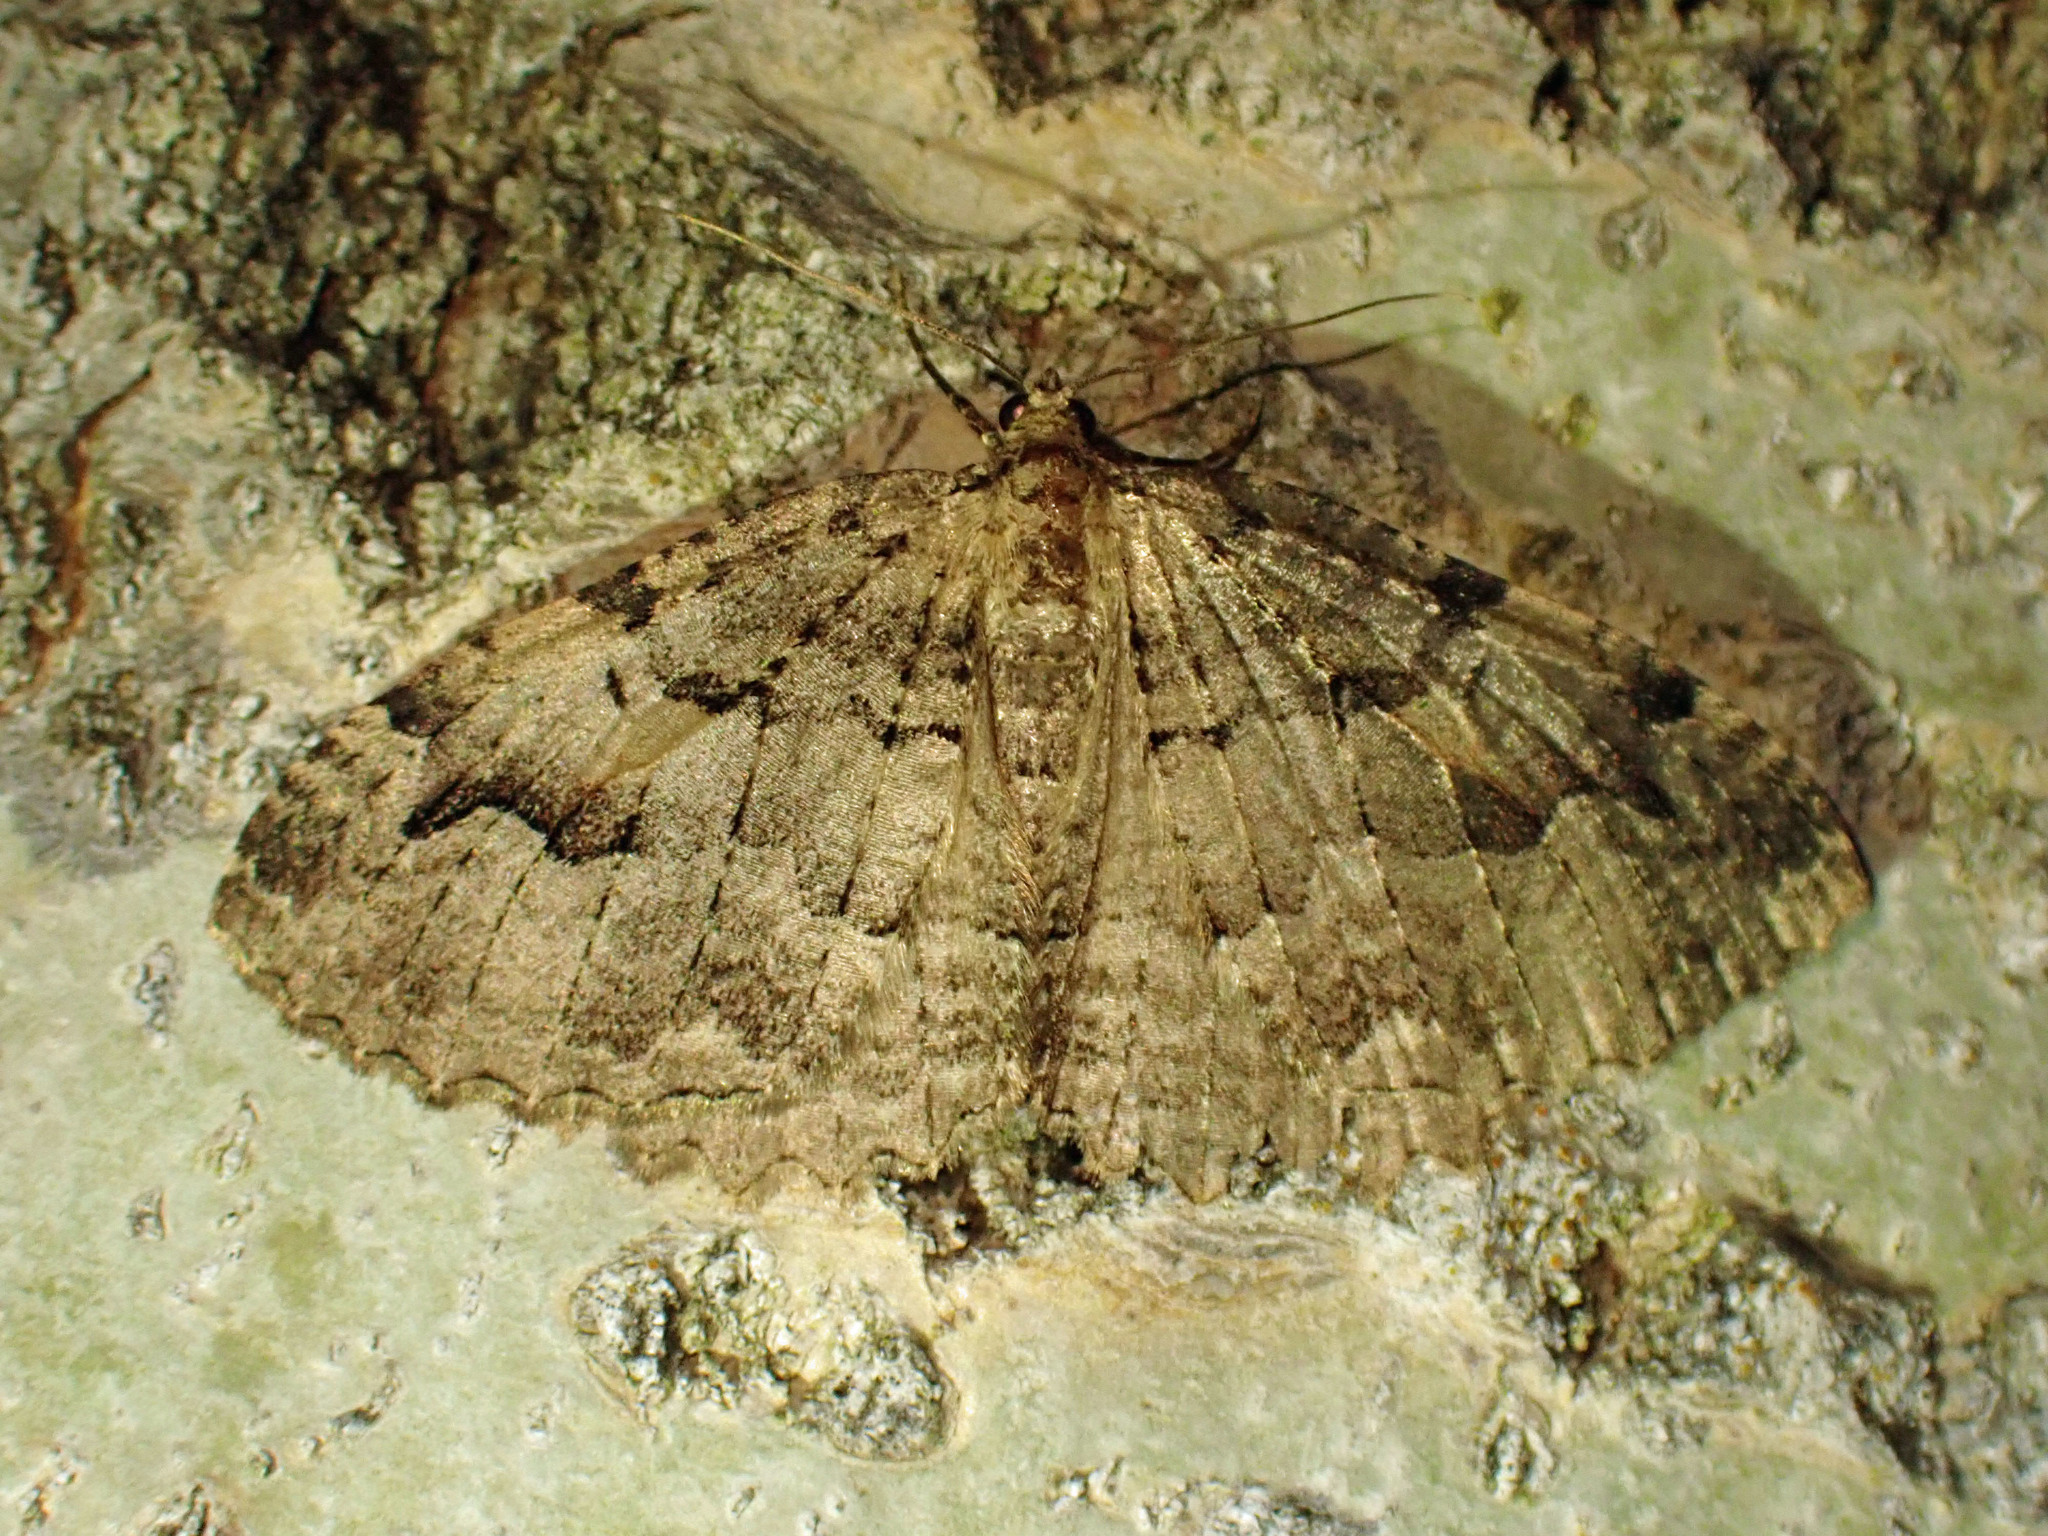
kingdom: Animalia
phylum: Arthropoda
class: Insecta
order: Lepidoptera
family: Geometridae
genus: Triphosa
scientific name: Triphosa haesitata
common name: Tissue moth
